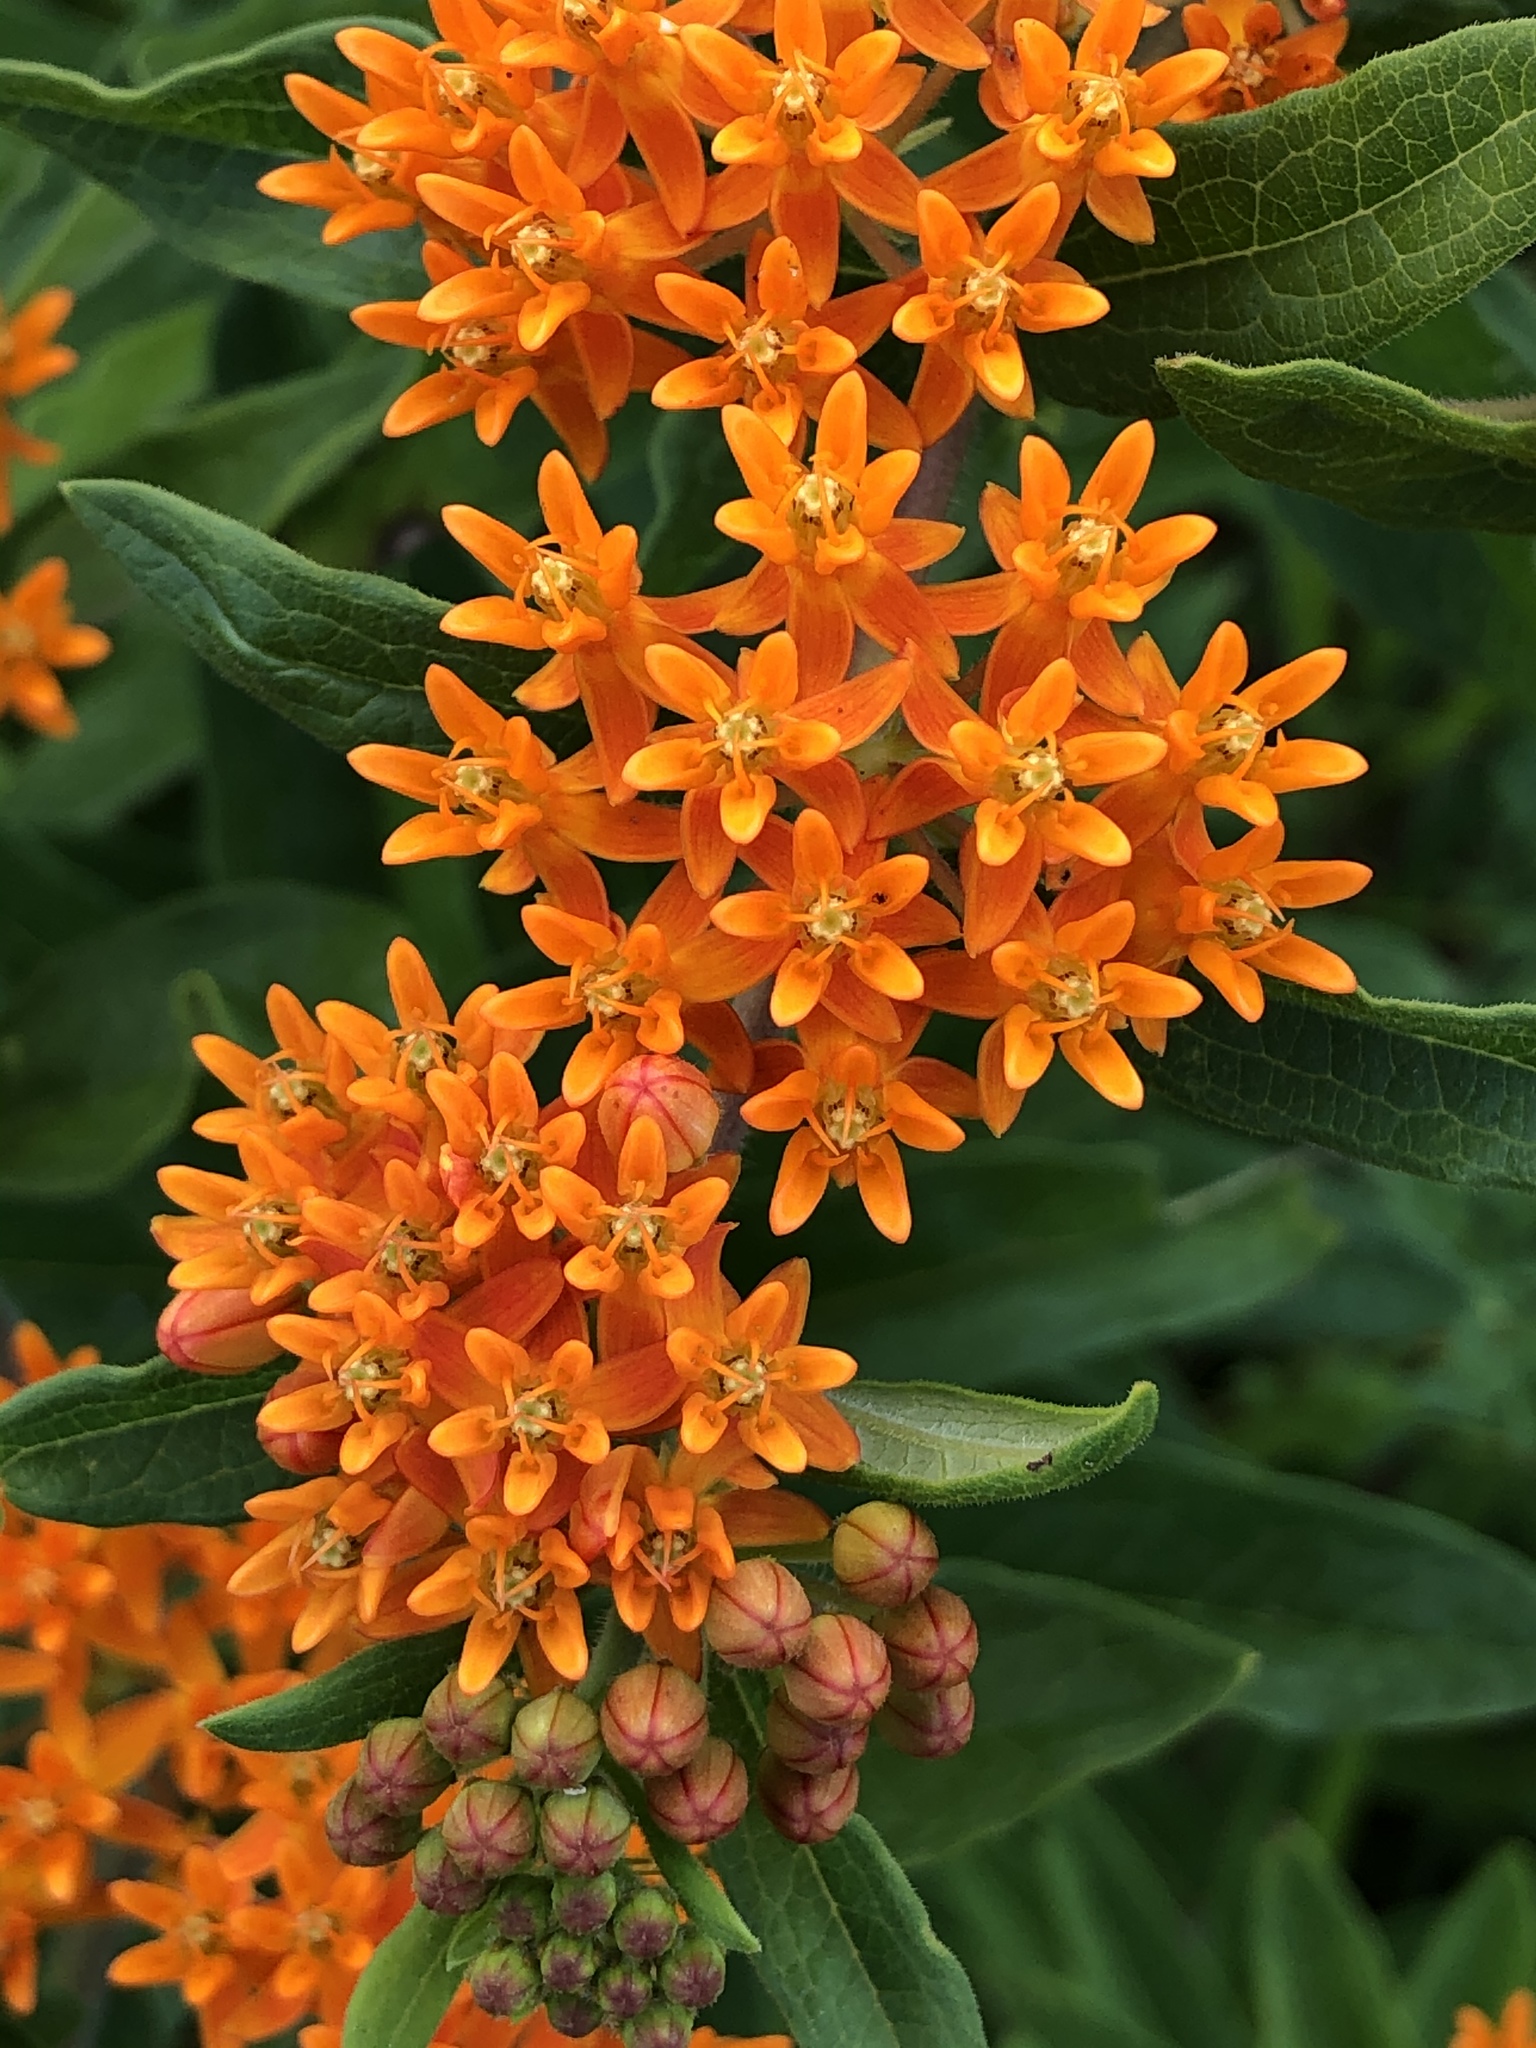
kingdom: Plantae
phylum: Tracheophyta
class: Magnoliopsida
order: Gentianales
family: Apocynaceae
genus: Asclepias
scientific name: Asclepias tuberosa
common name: Butterfly milkweed
